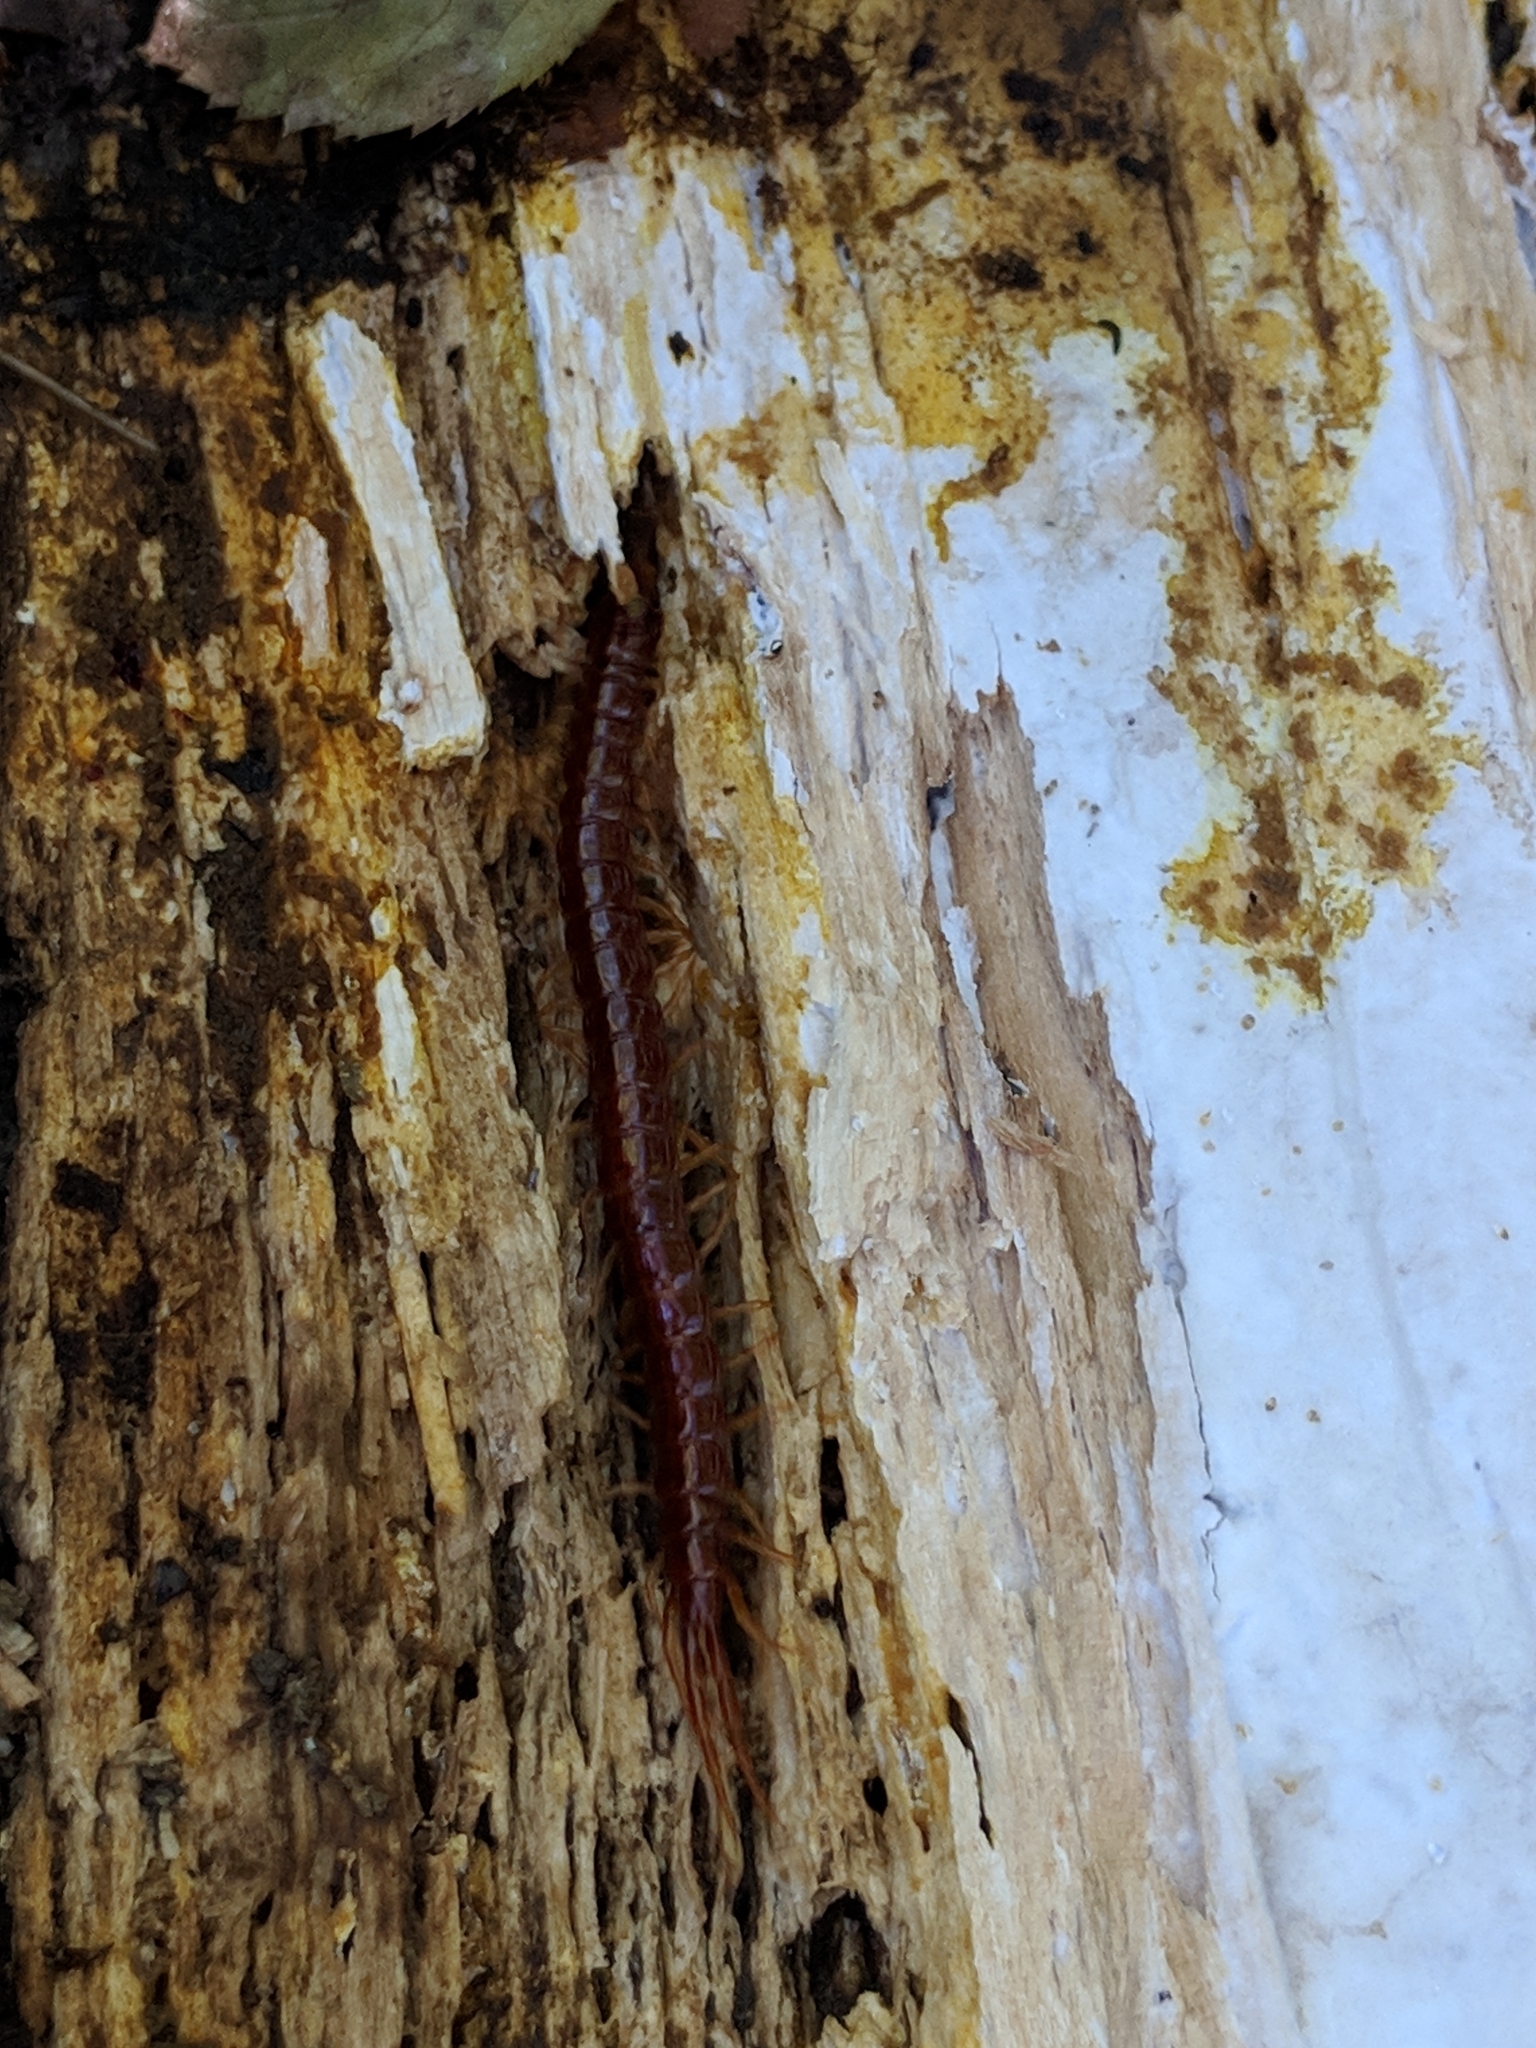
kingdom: Animalia
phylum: Arthropoda
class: Chilopoda
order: Scolopendromorpha
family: Scolopocryptopidae
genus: Scolopocryptops
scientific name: Scolopocryptops sexspinosus
